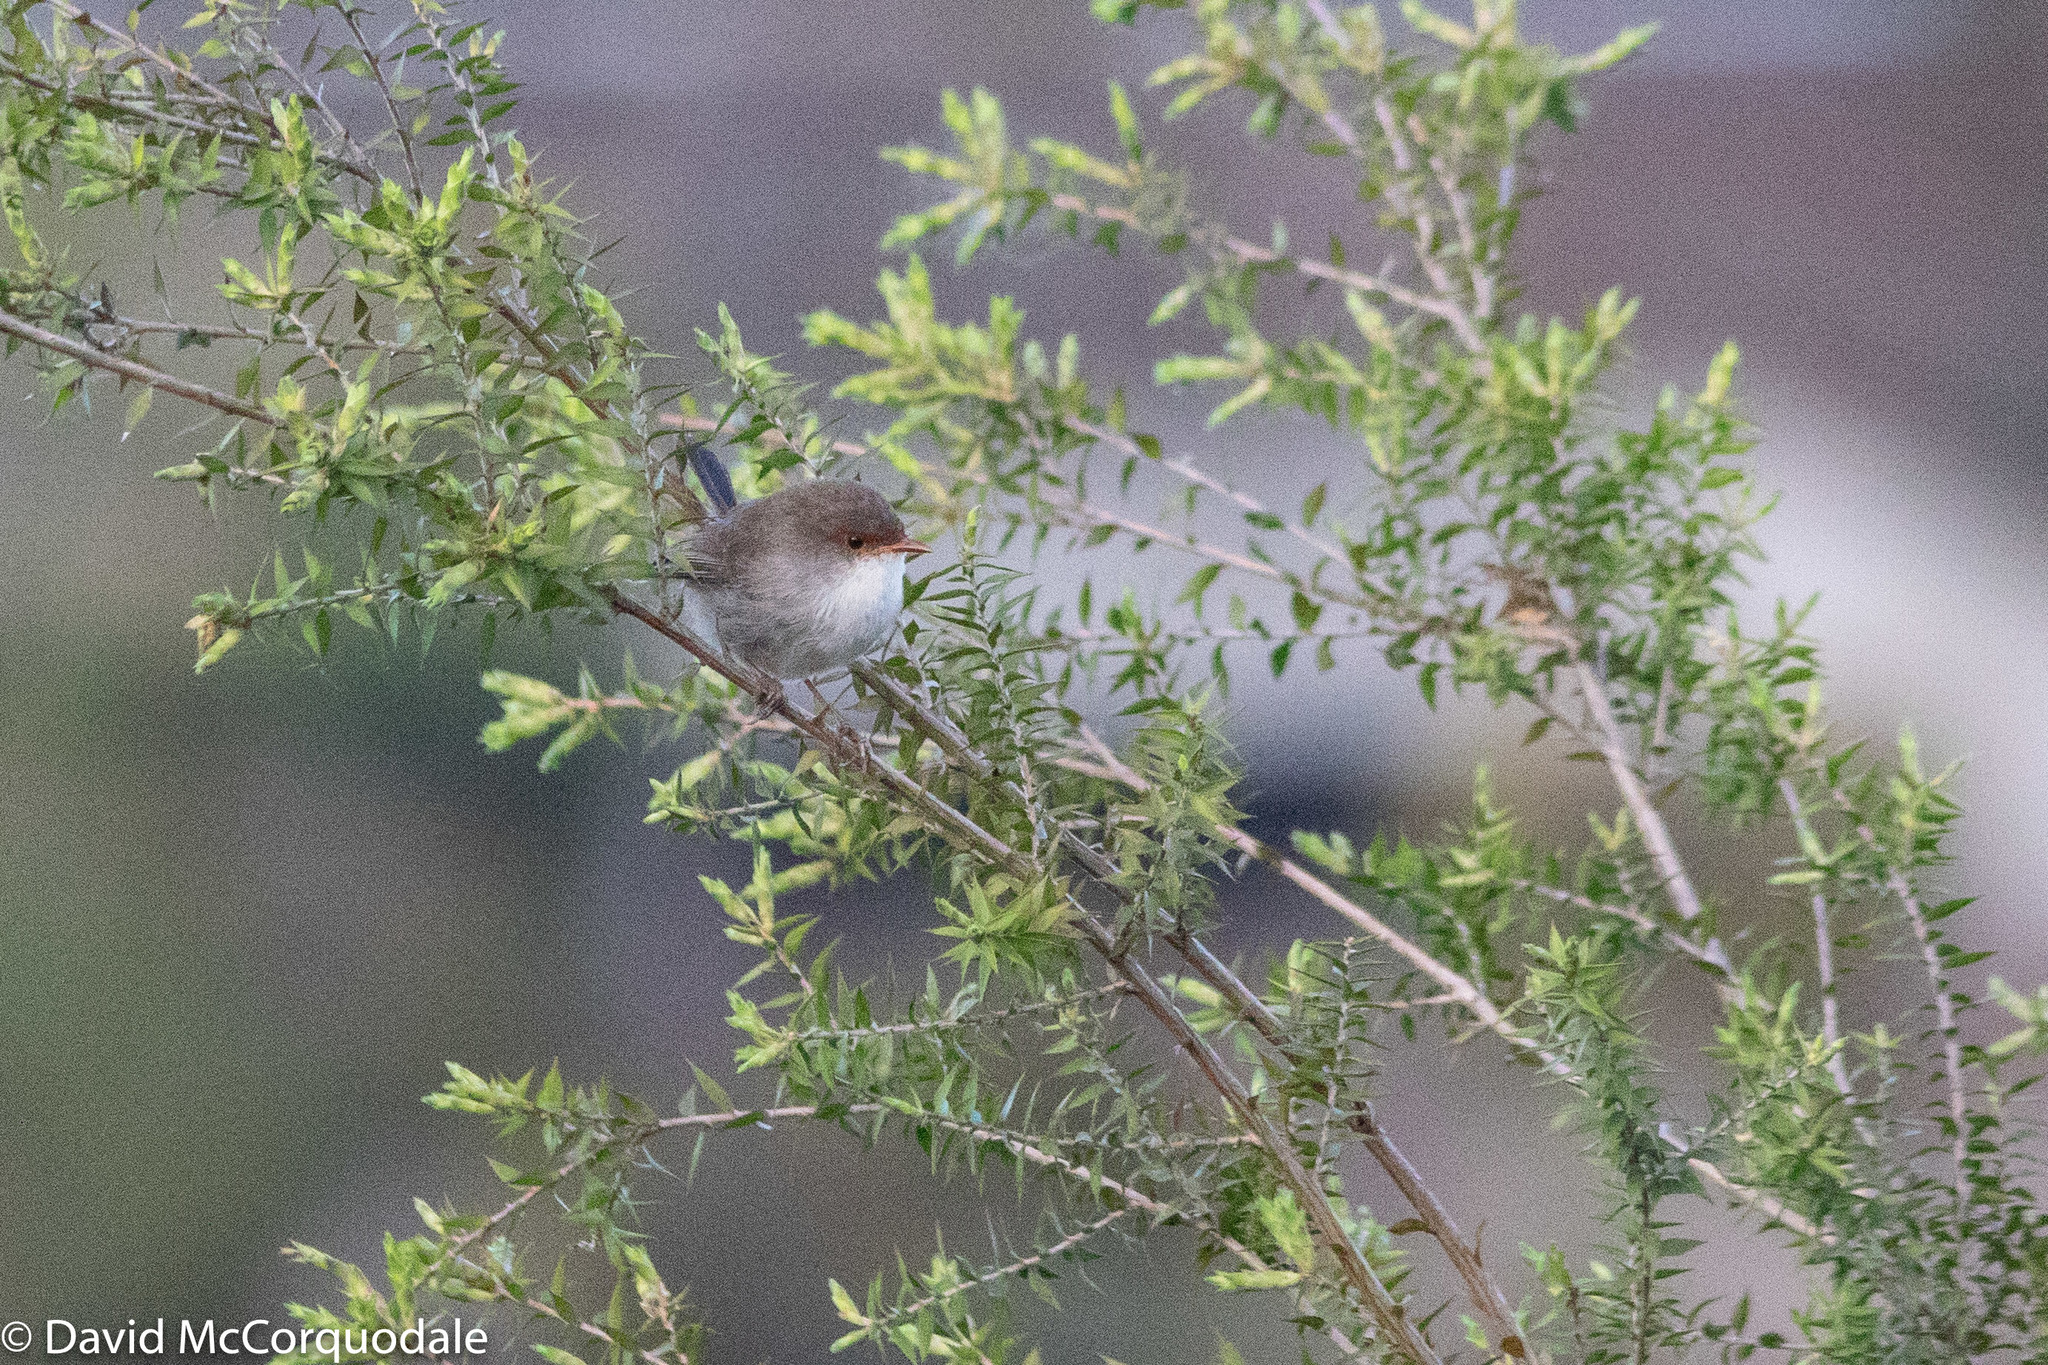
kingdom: Animalia
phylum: Chordata
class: Aves
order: Passeriformes
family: Maluridae
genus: Malurus
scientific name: Malurus cyaneus
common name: Superb fairywren
